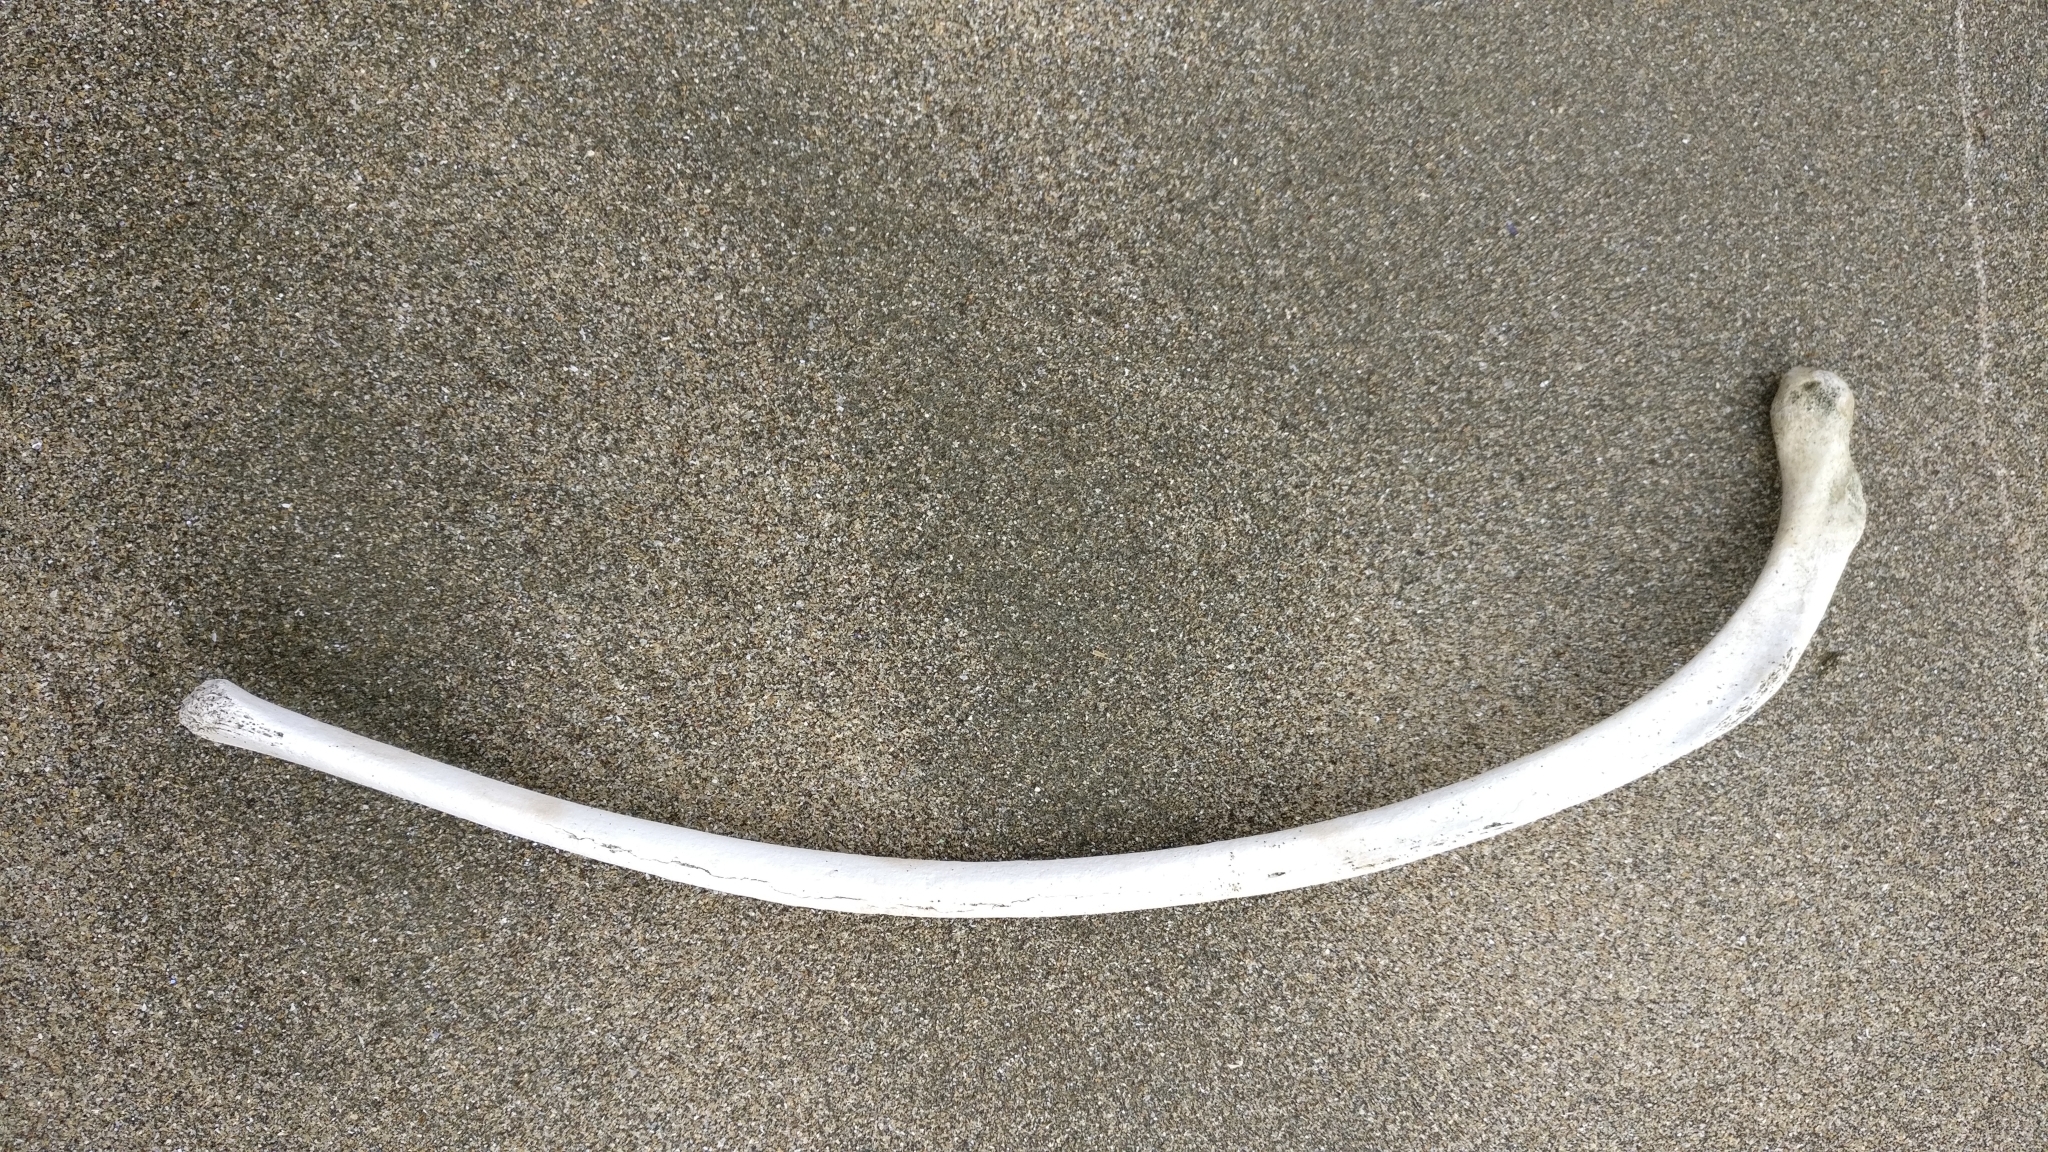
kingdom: Animalia
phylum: Chordata
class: Mammalia
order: Carnivora
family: Otariidae
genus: Arctocephalus
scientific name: Arctocephalus forsteri
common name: New zealand fur seal
